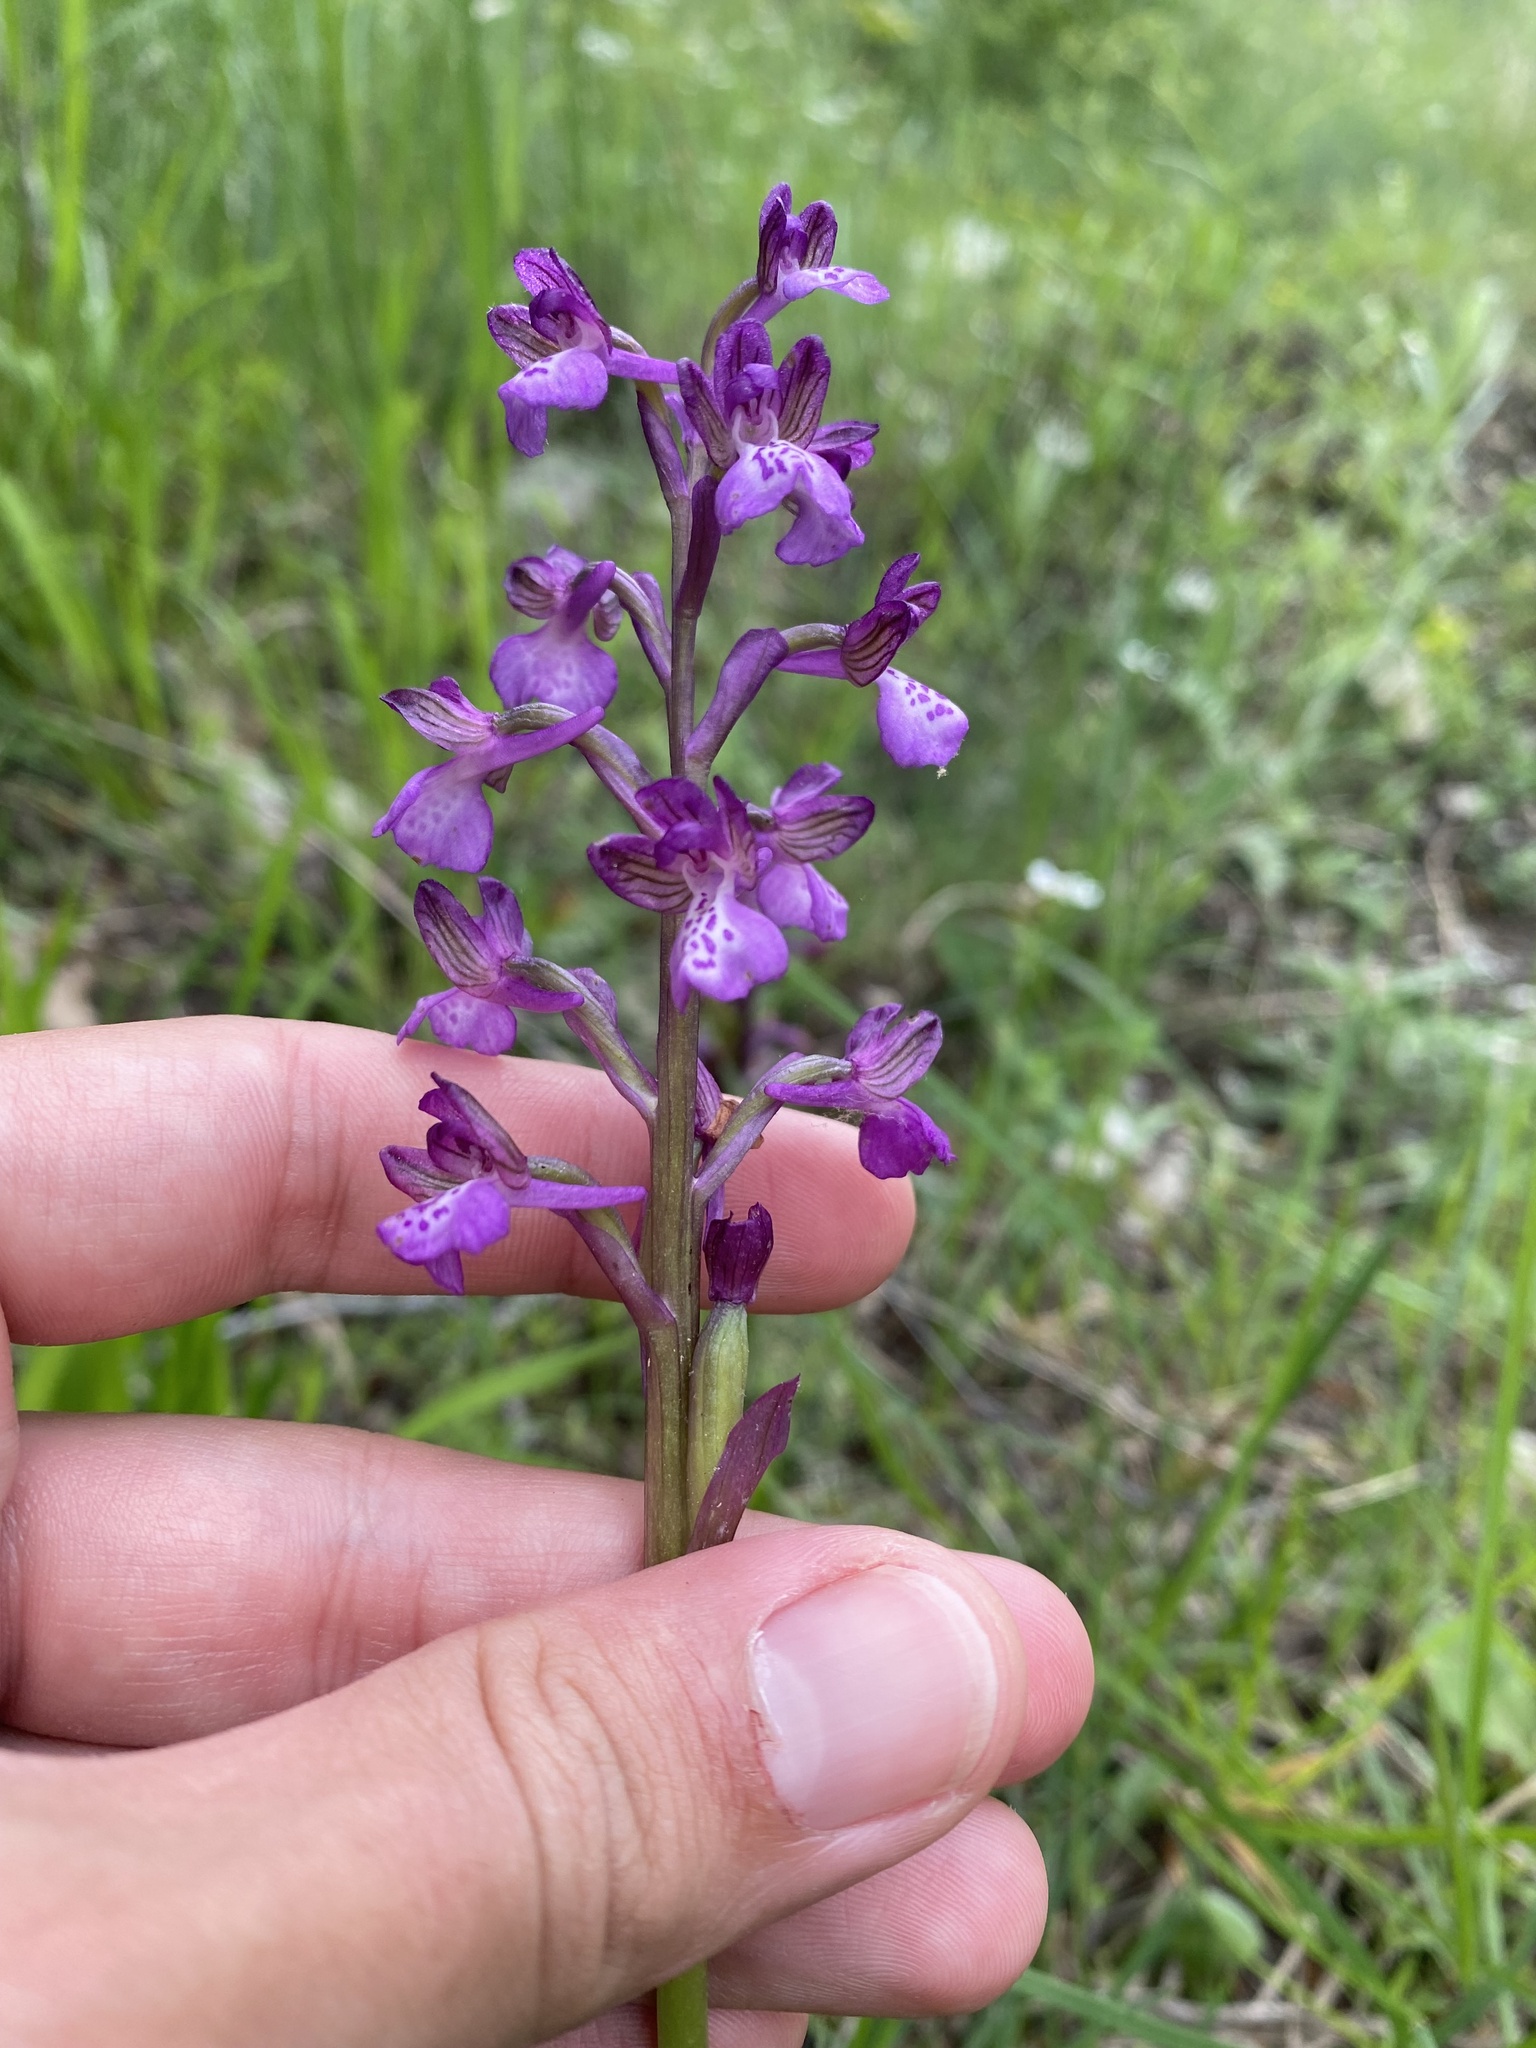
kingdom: Plantae
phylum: Tracheophyta
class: Liliopsida
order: Asparagales
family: Orchidaceae
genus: Anacamptis
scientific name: Anacamptis morio
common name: Green-winged orchid
